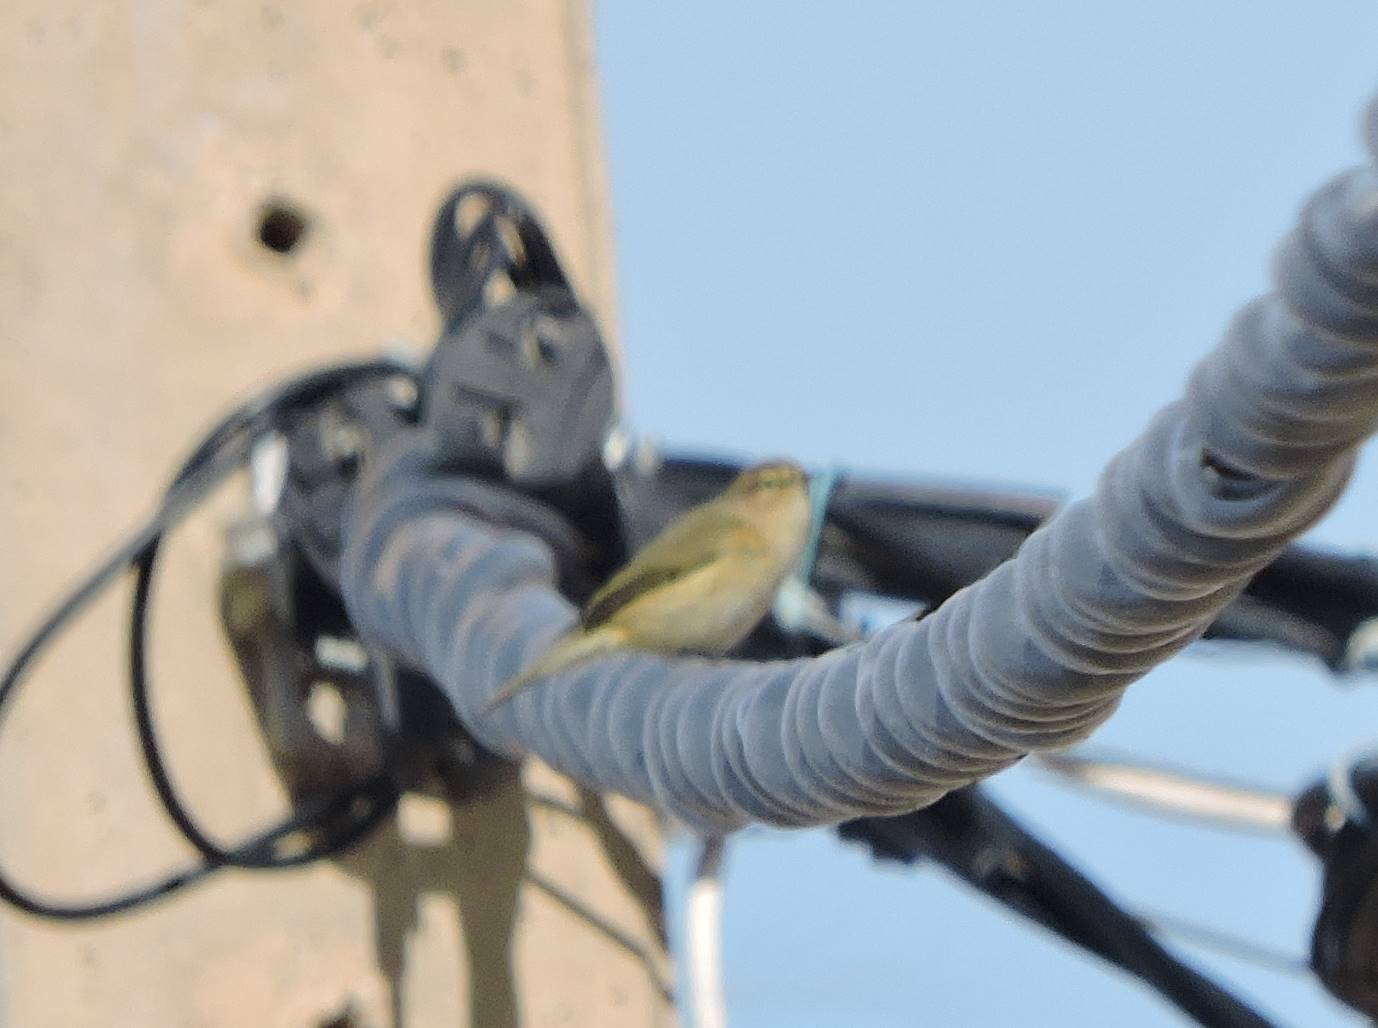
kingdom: Animalia
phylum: Chordata
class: Aves
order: Passeriformes
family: Phylloscopidae
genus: Phylloscopus
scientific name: Phylloscopus collybita
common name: Common chiffchaff
